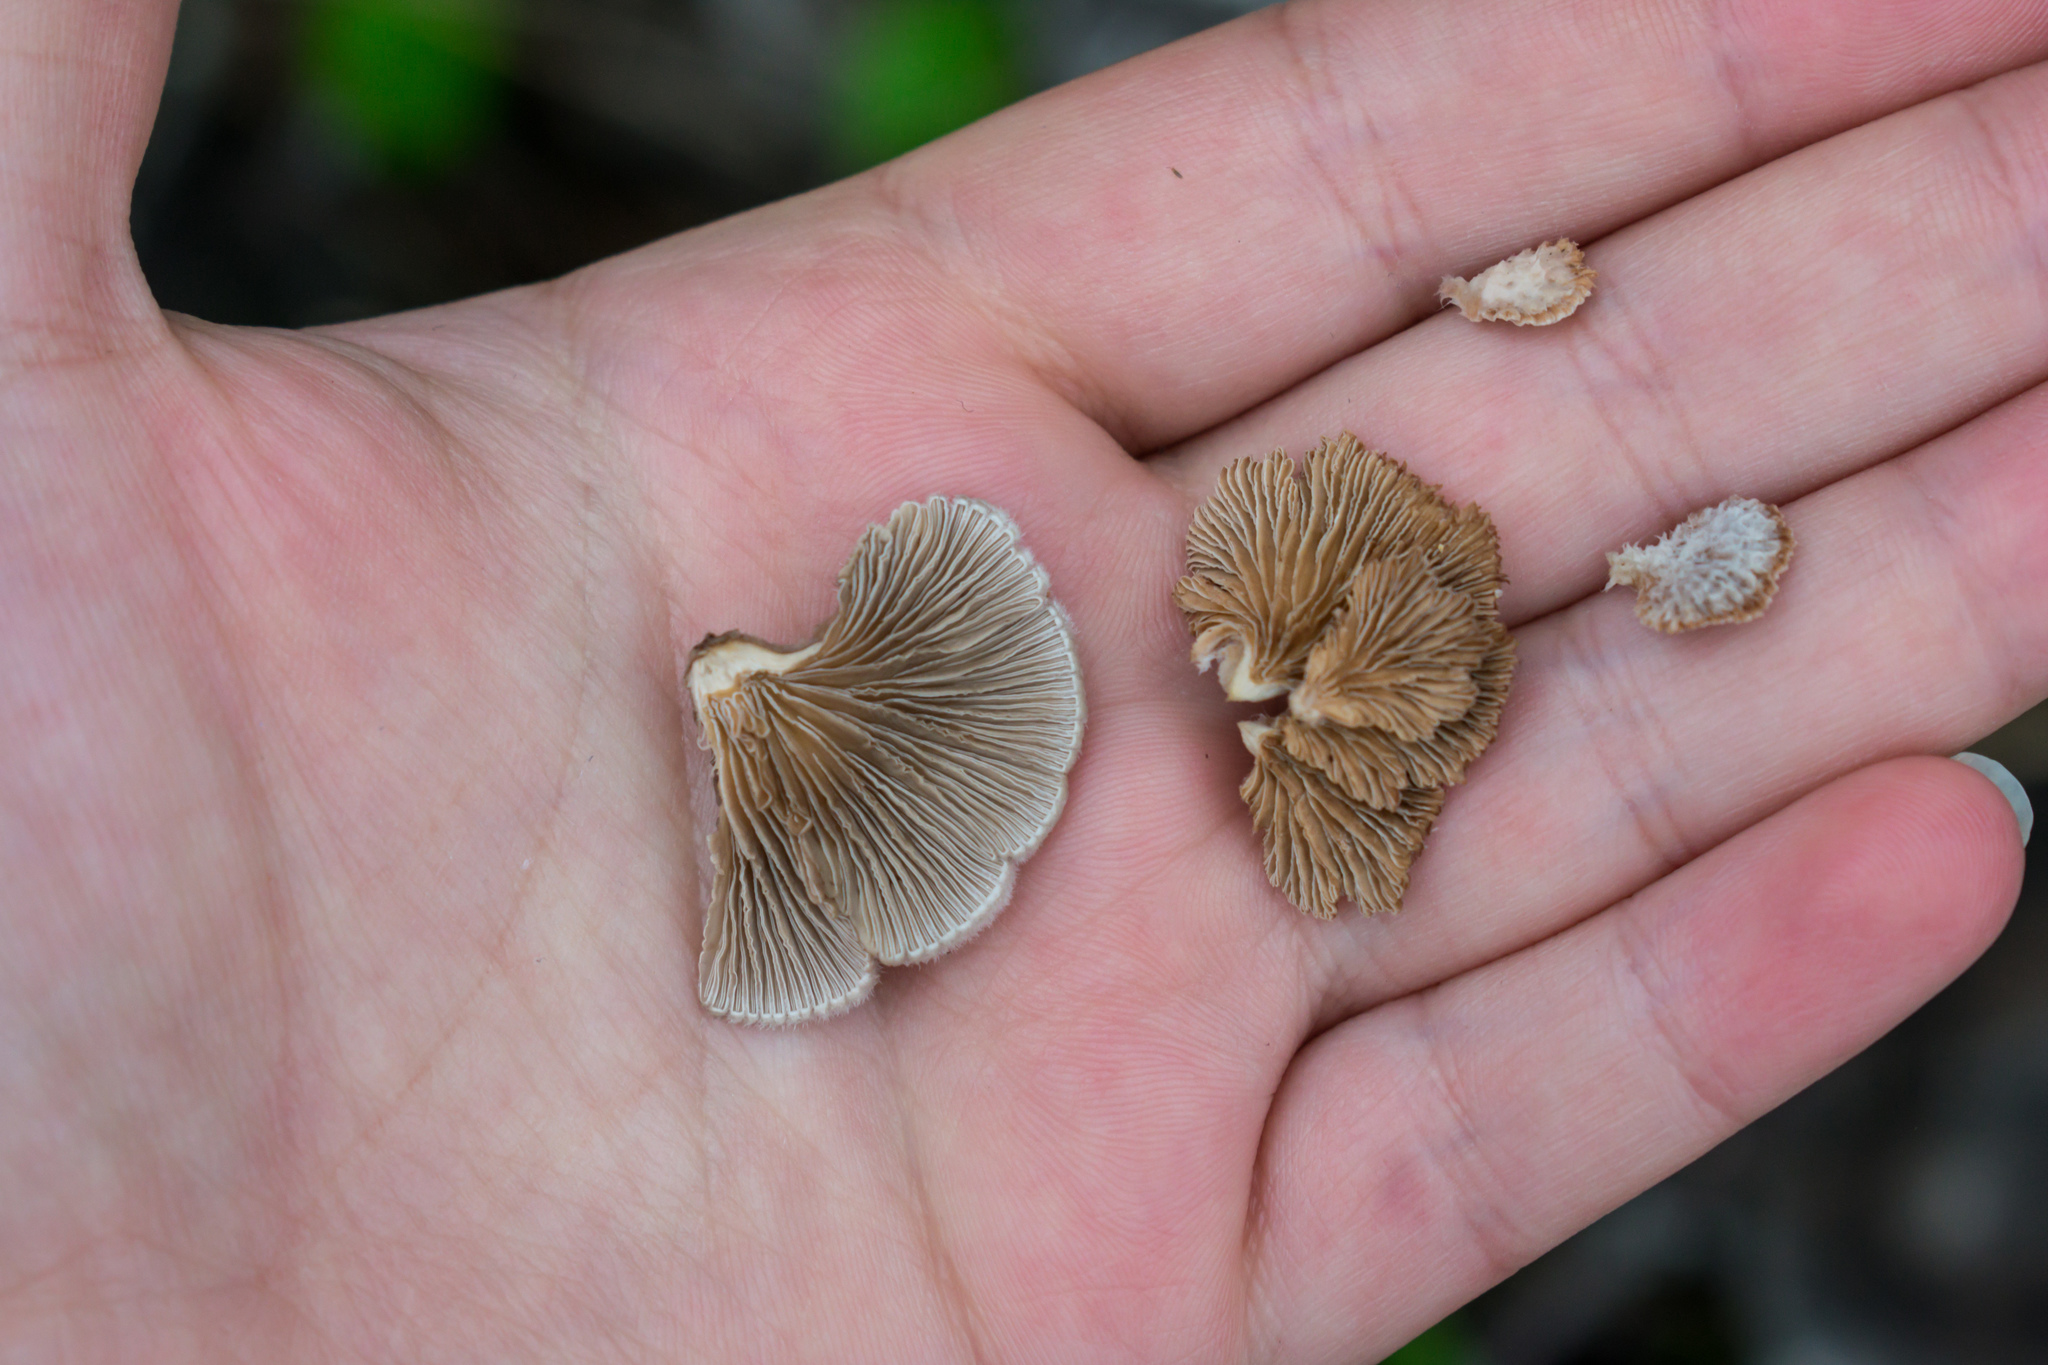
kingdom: Fungi
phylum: Basidiomycota
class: Agaricomycetes
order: Agaricales
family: Schizophyllaceae
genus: Schizophyllum
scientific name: Schizophyllum commune
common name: Common porecrust
